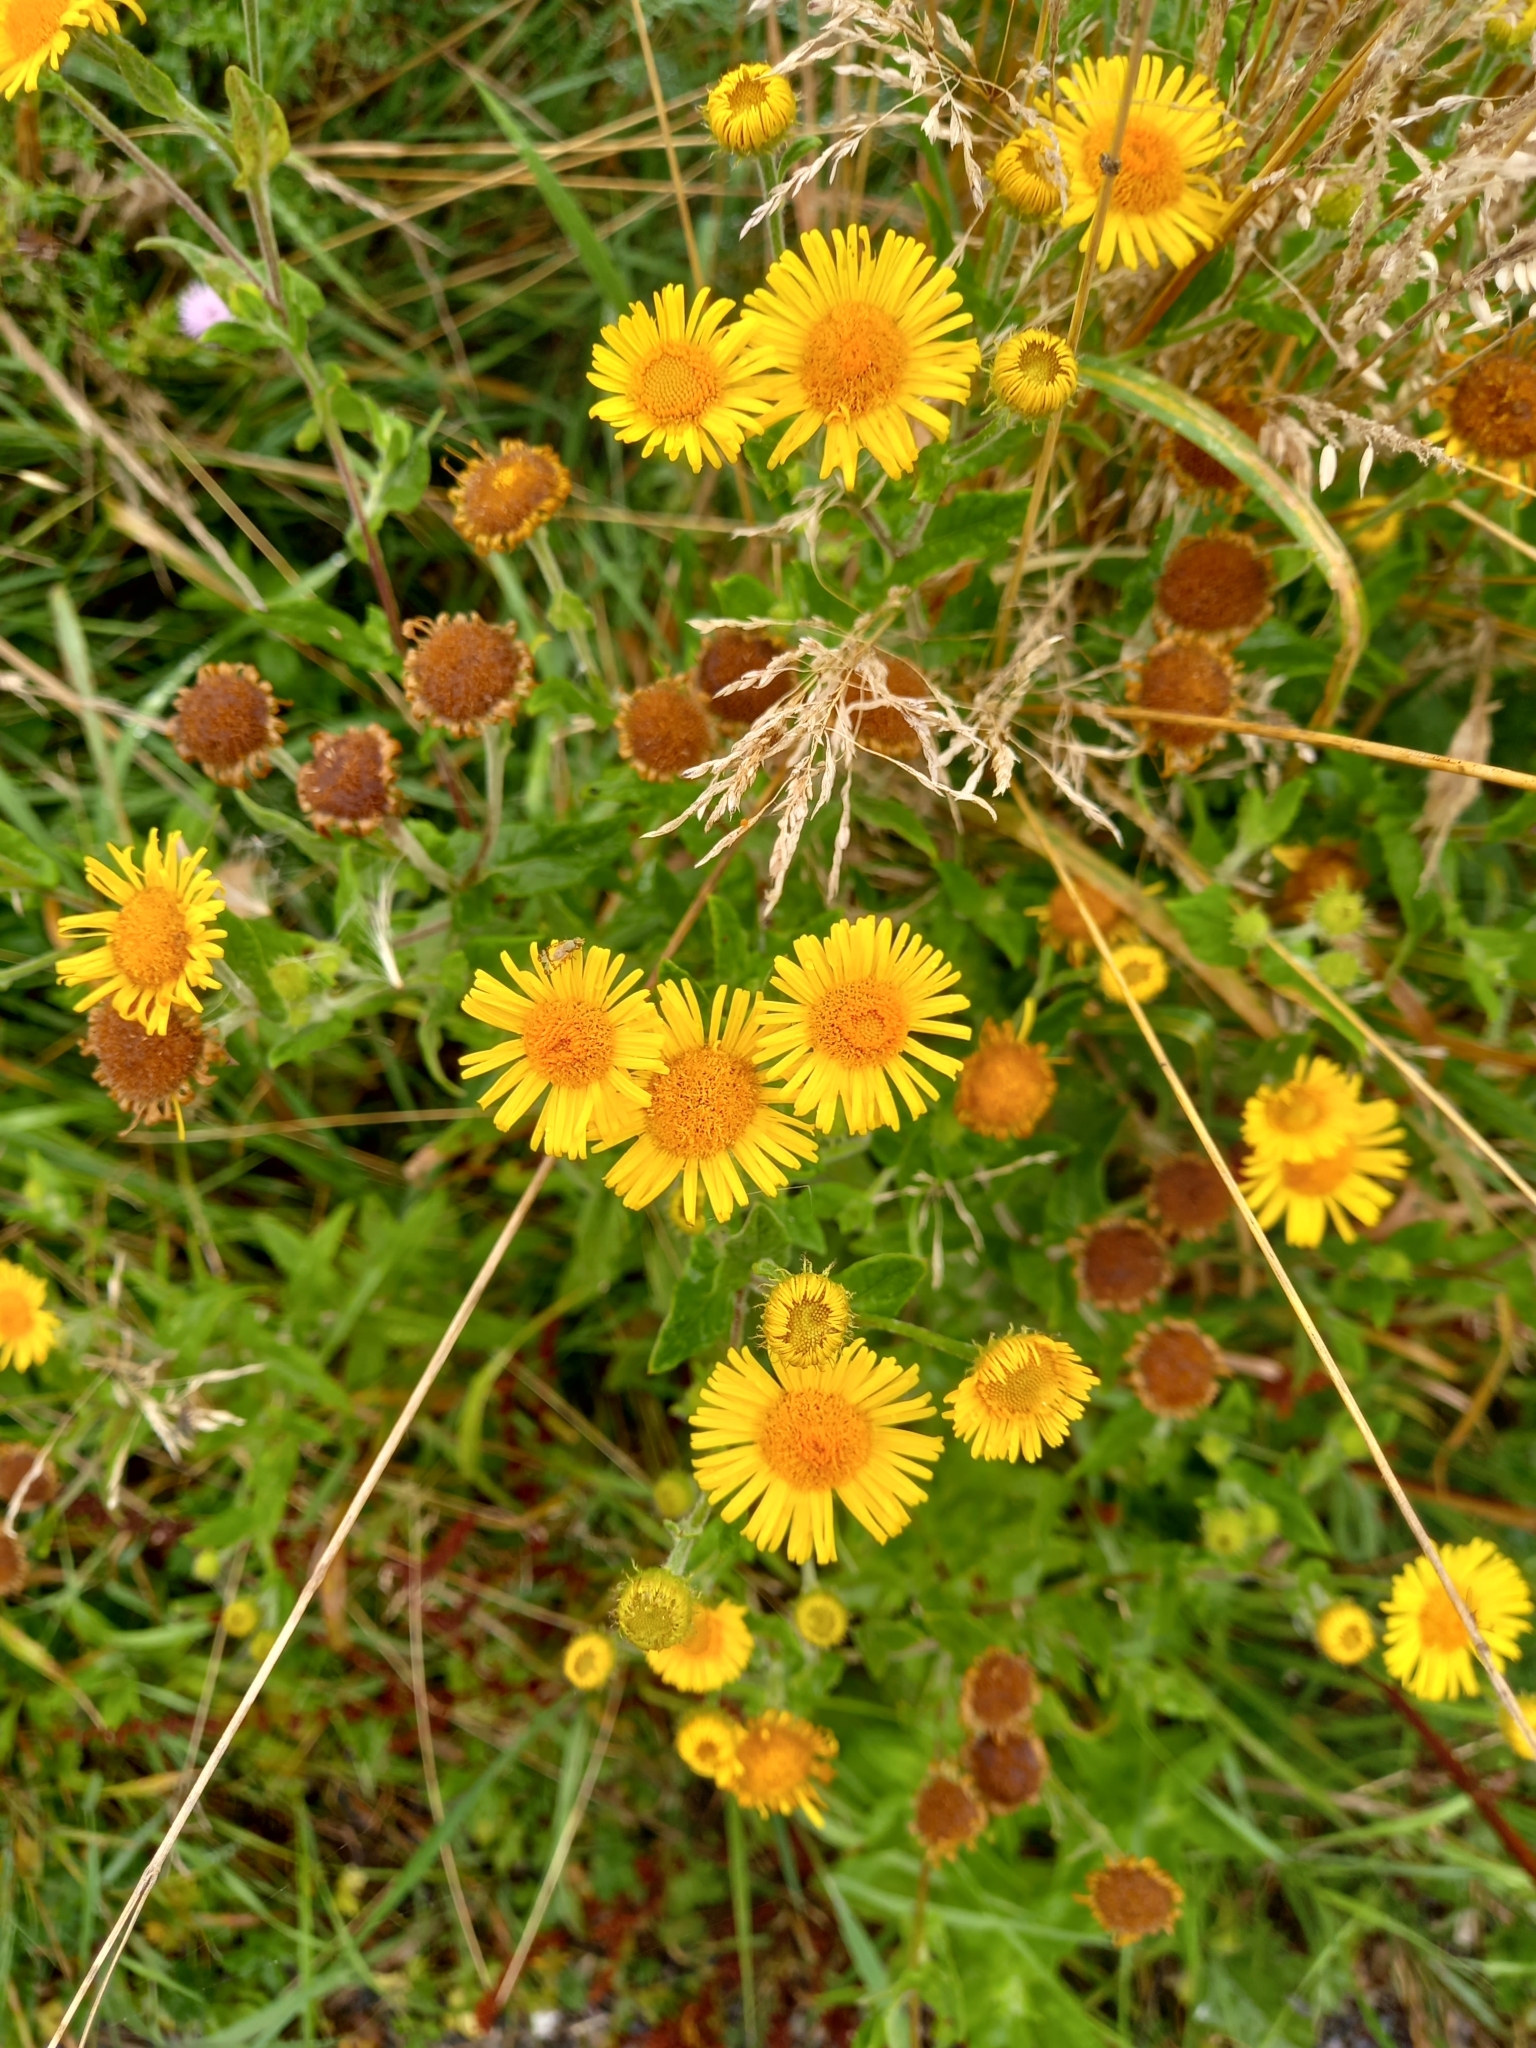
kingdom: Plantae
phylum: Tracheophyta
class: Magnoliopsida
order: Asterales
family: Asteraceae
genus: Pulicaria
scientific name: Pulicaria dysenterica
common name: Common fleabane
